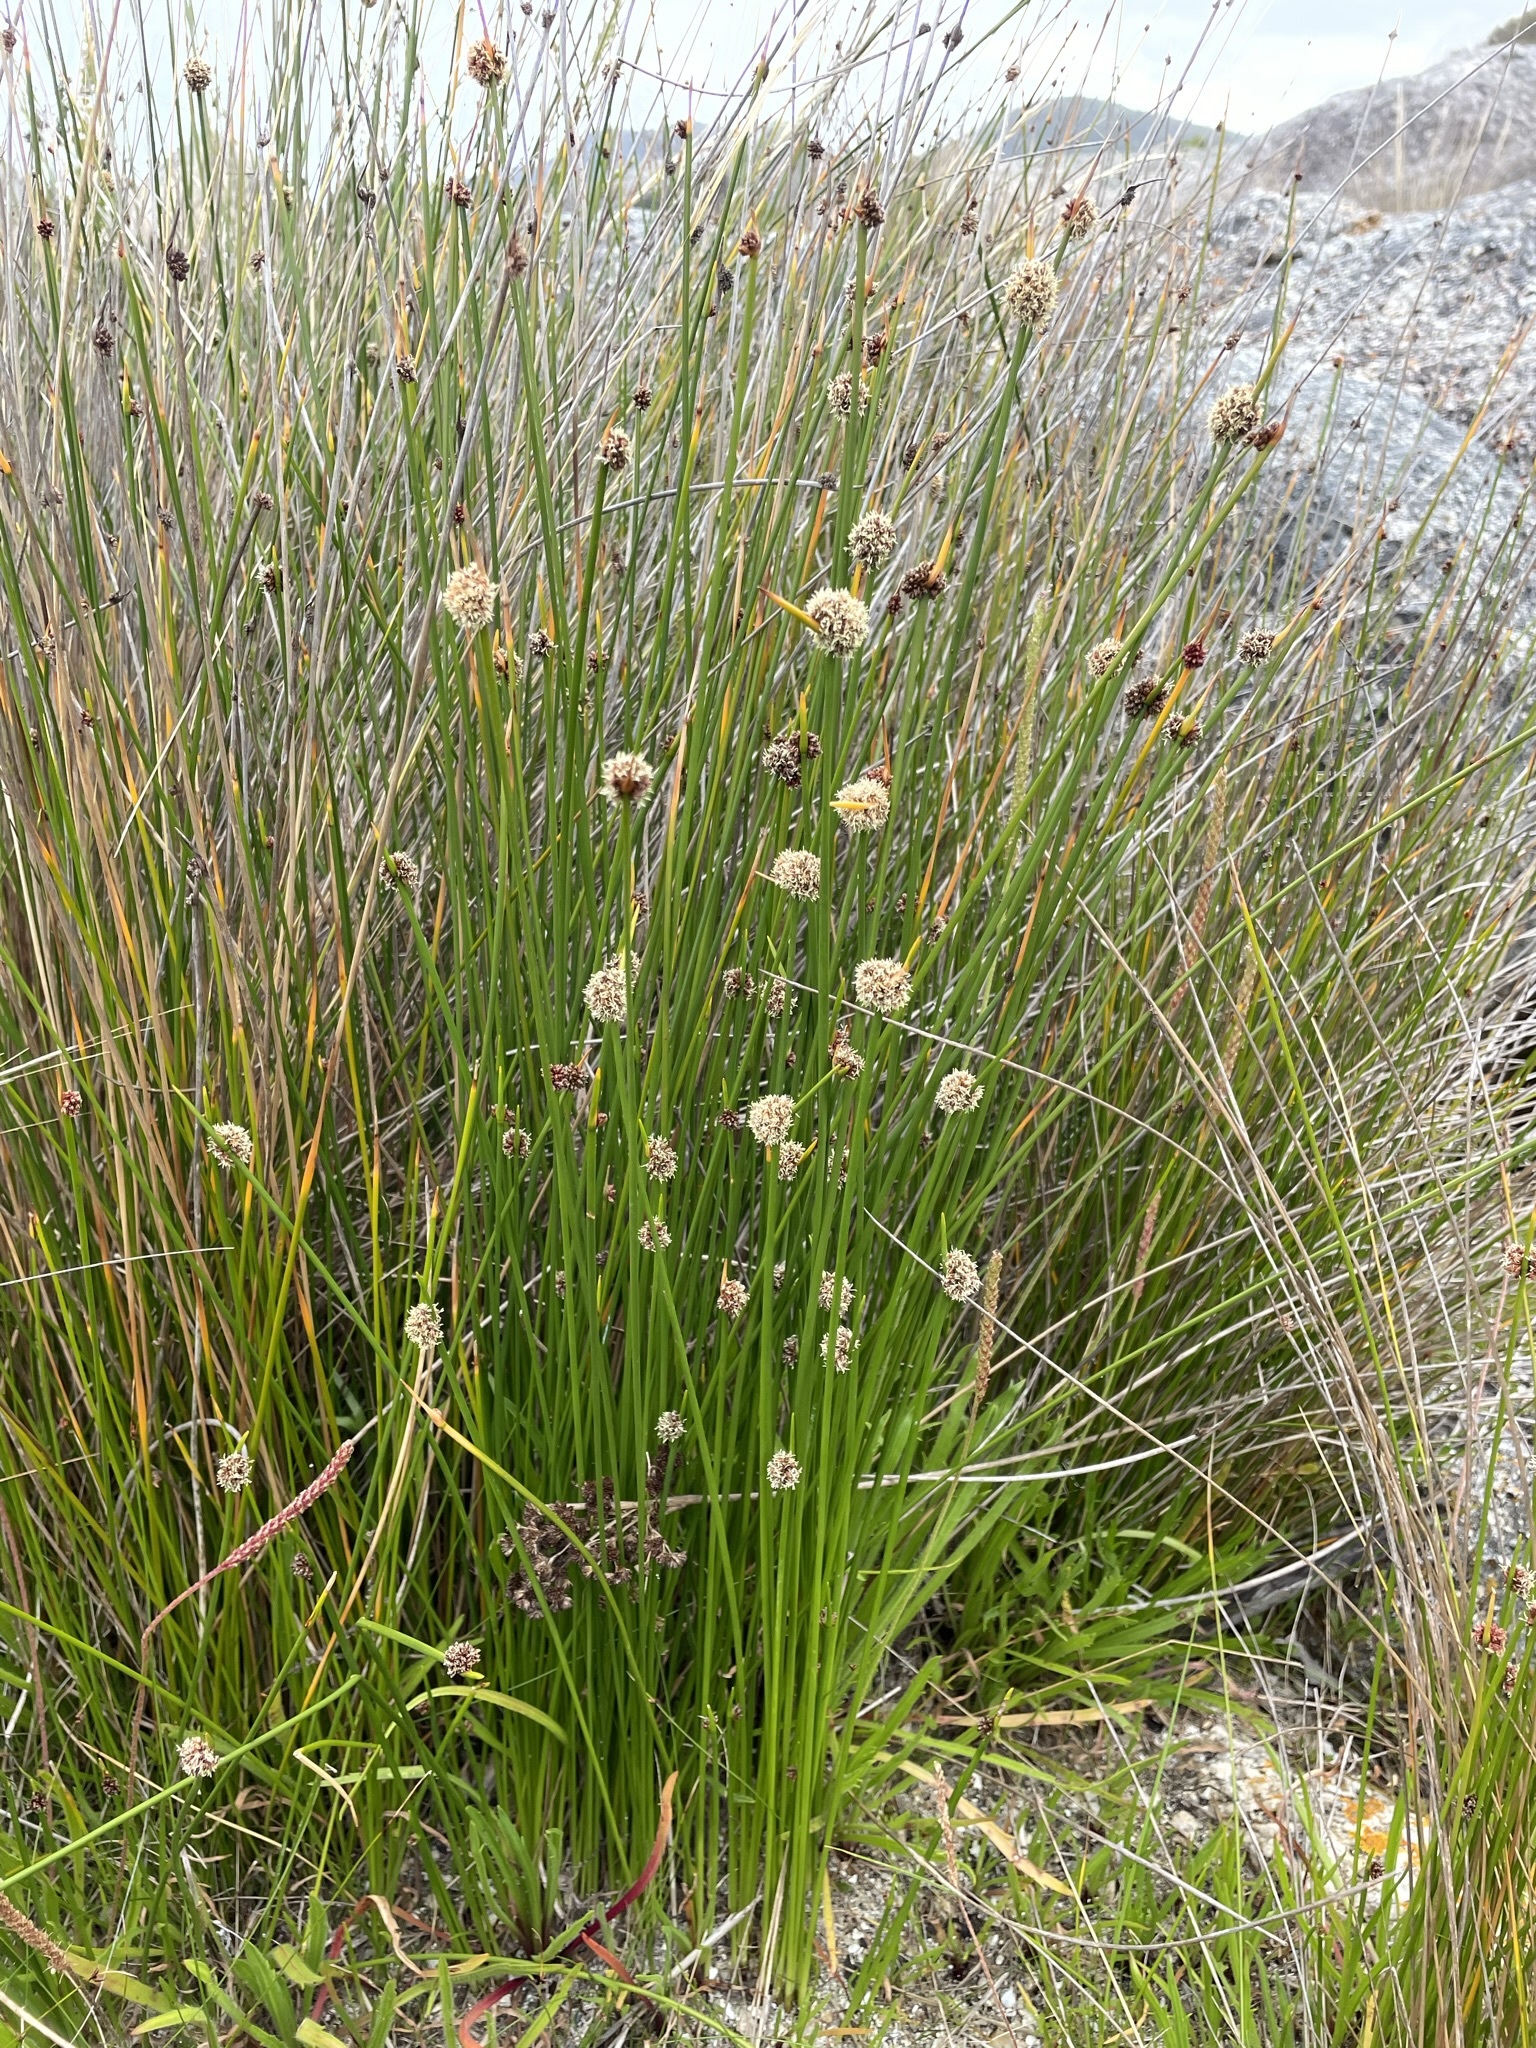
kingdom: Plantae
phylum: Tracheophyta
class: Liliopsida
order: Poales
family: Cyperaceae
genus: Ficinia
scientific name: Ficinia nodosa
